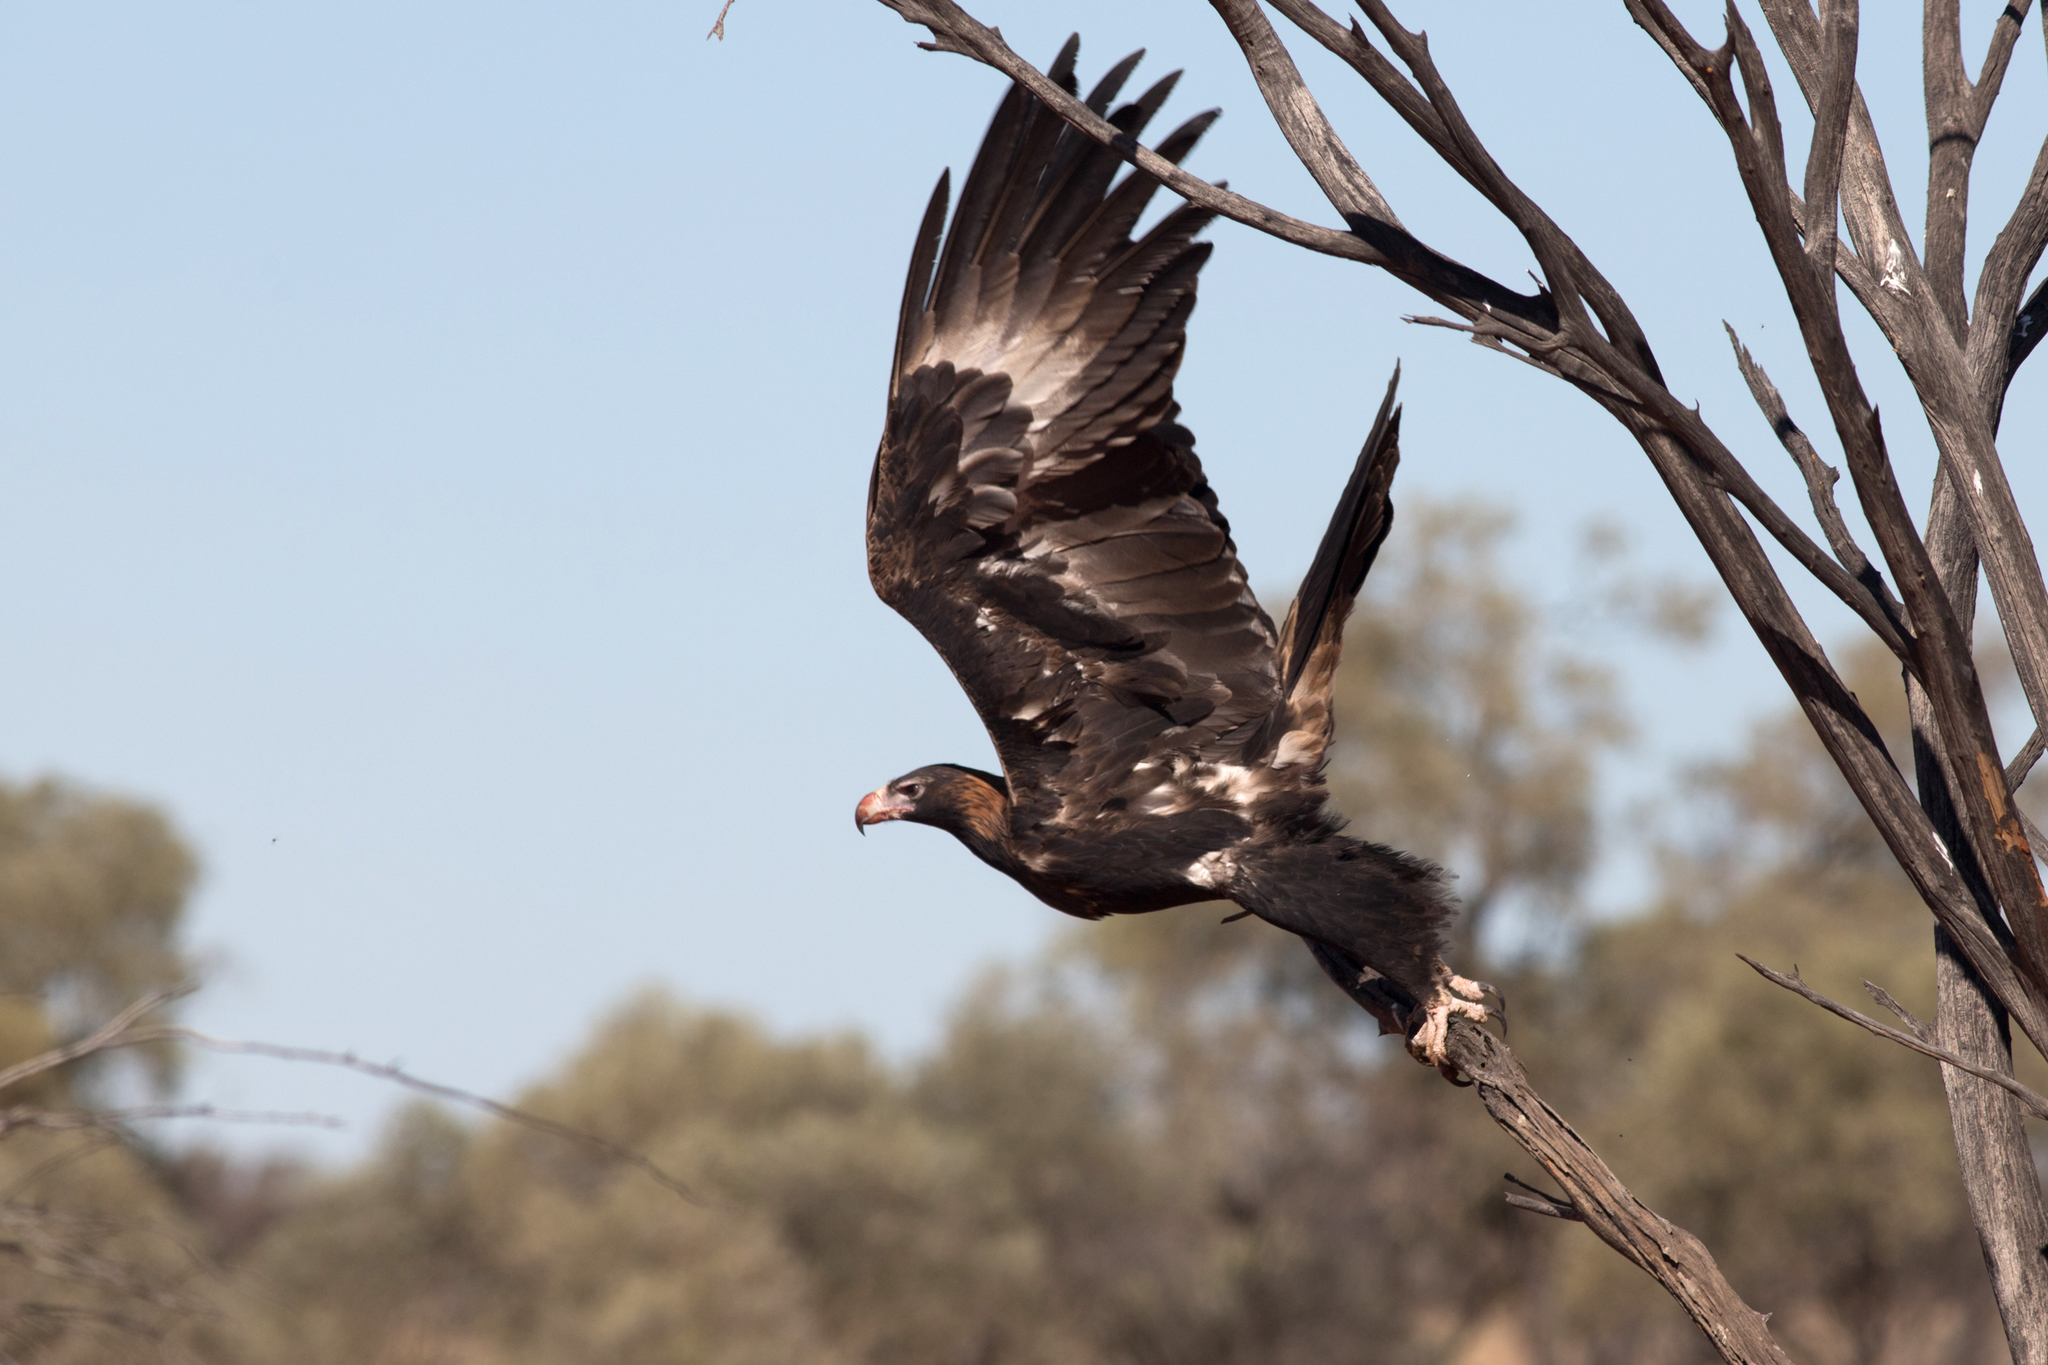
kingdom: Animalia
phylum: Chordata
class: Aves
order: Accipitriformes
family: Accipitridae
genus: Aquila
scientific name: Aquila audax
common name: Wedge-tailed eagle
